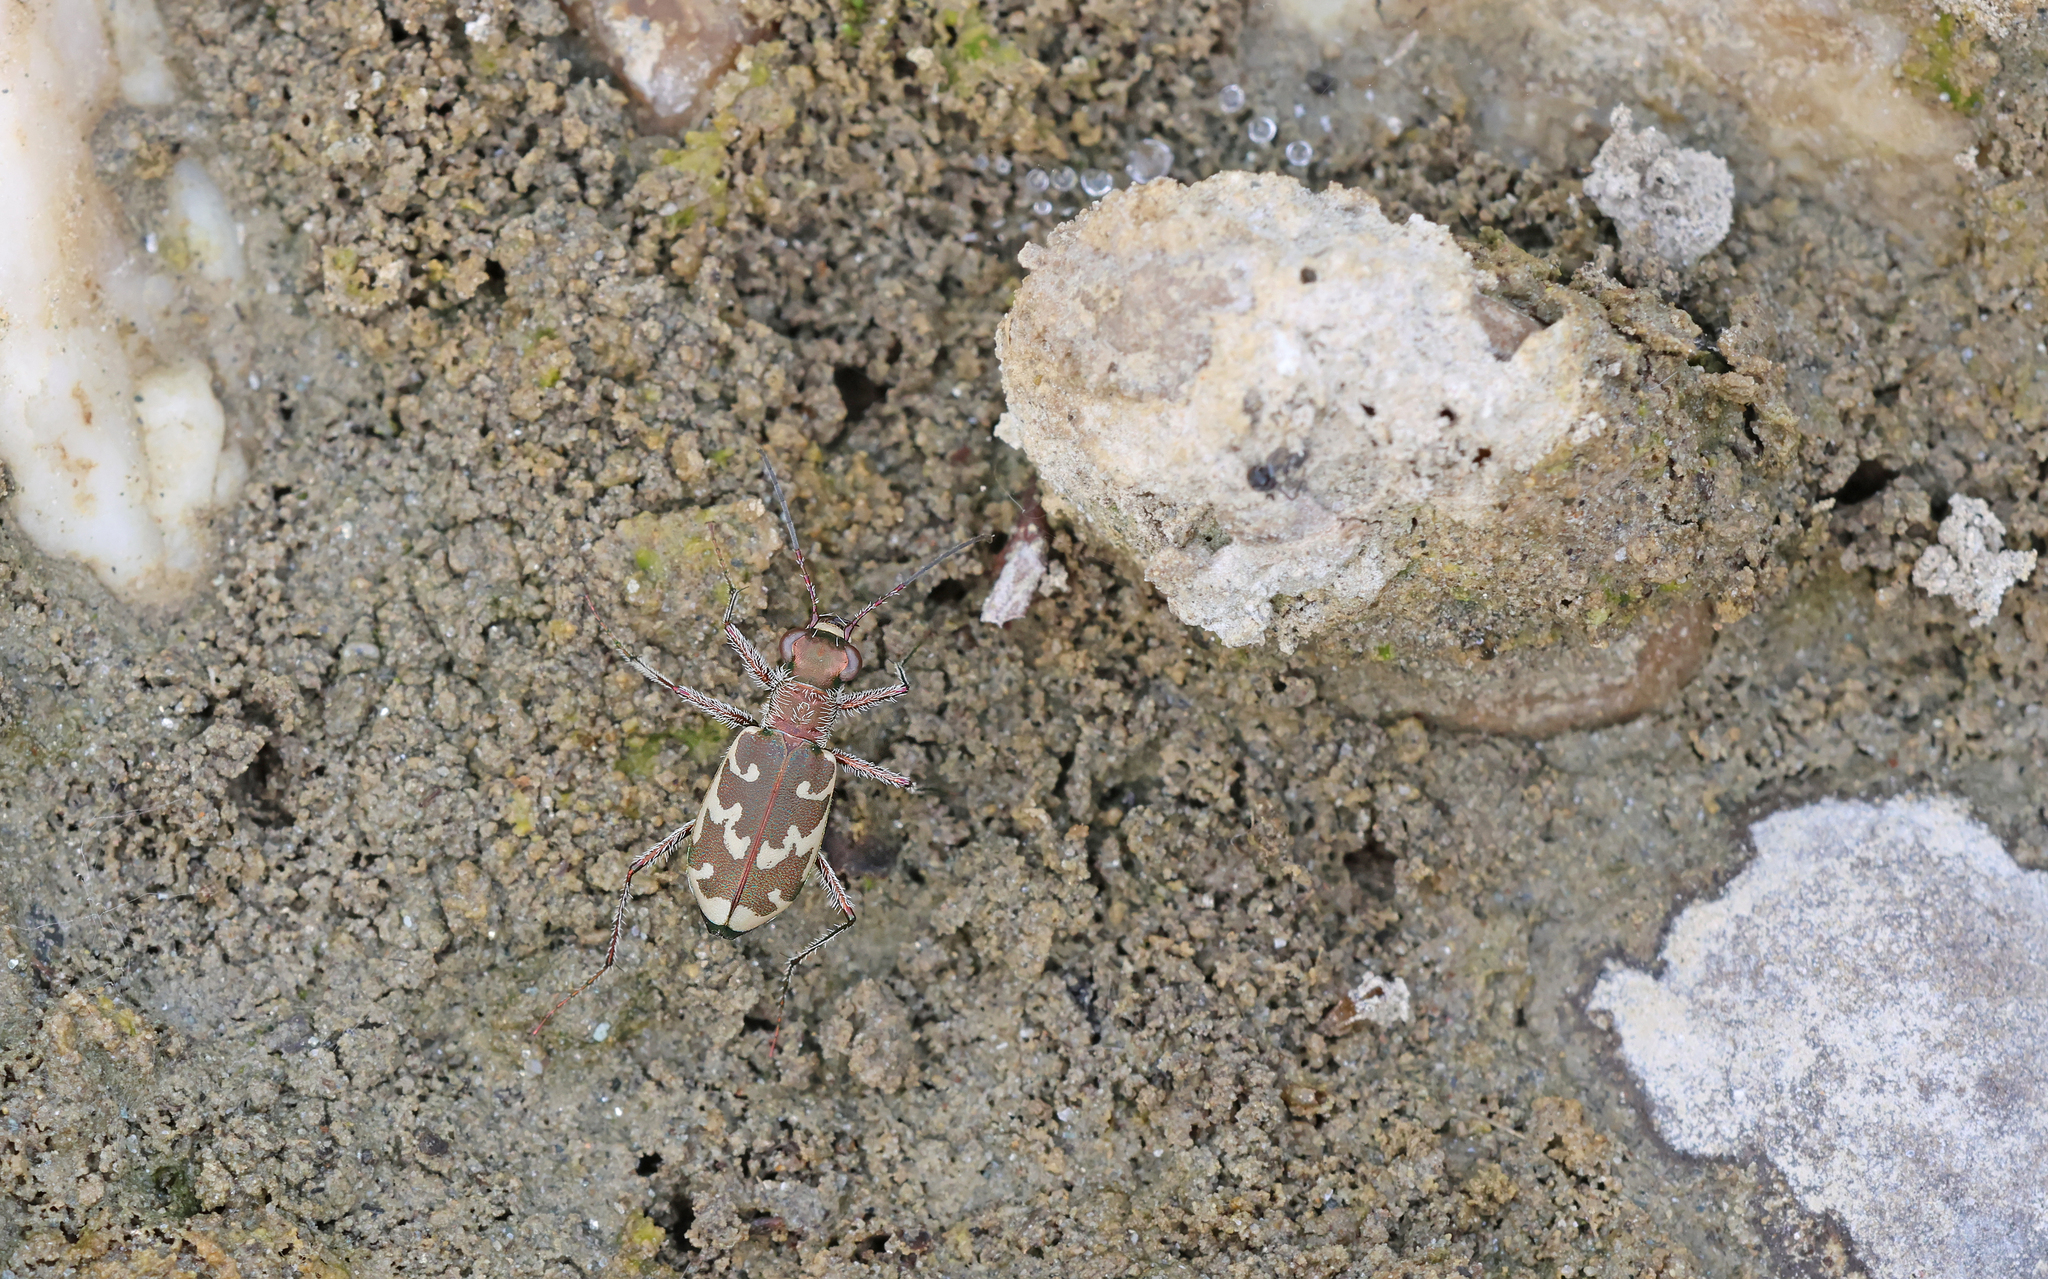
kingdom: Animalia
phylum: Arthropoda
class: Insecta
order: Coleoptera
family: Carabidae
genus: Cylindera
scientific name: Cylindera arenaria
